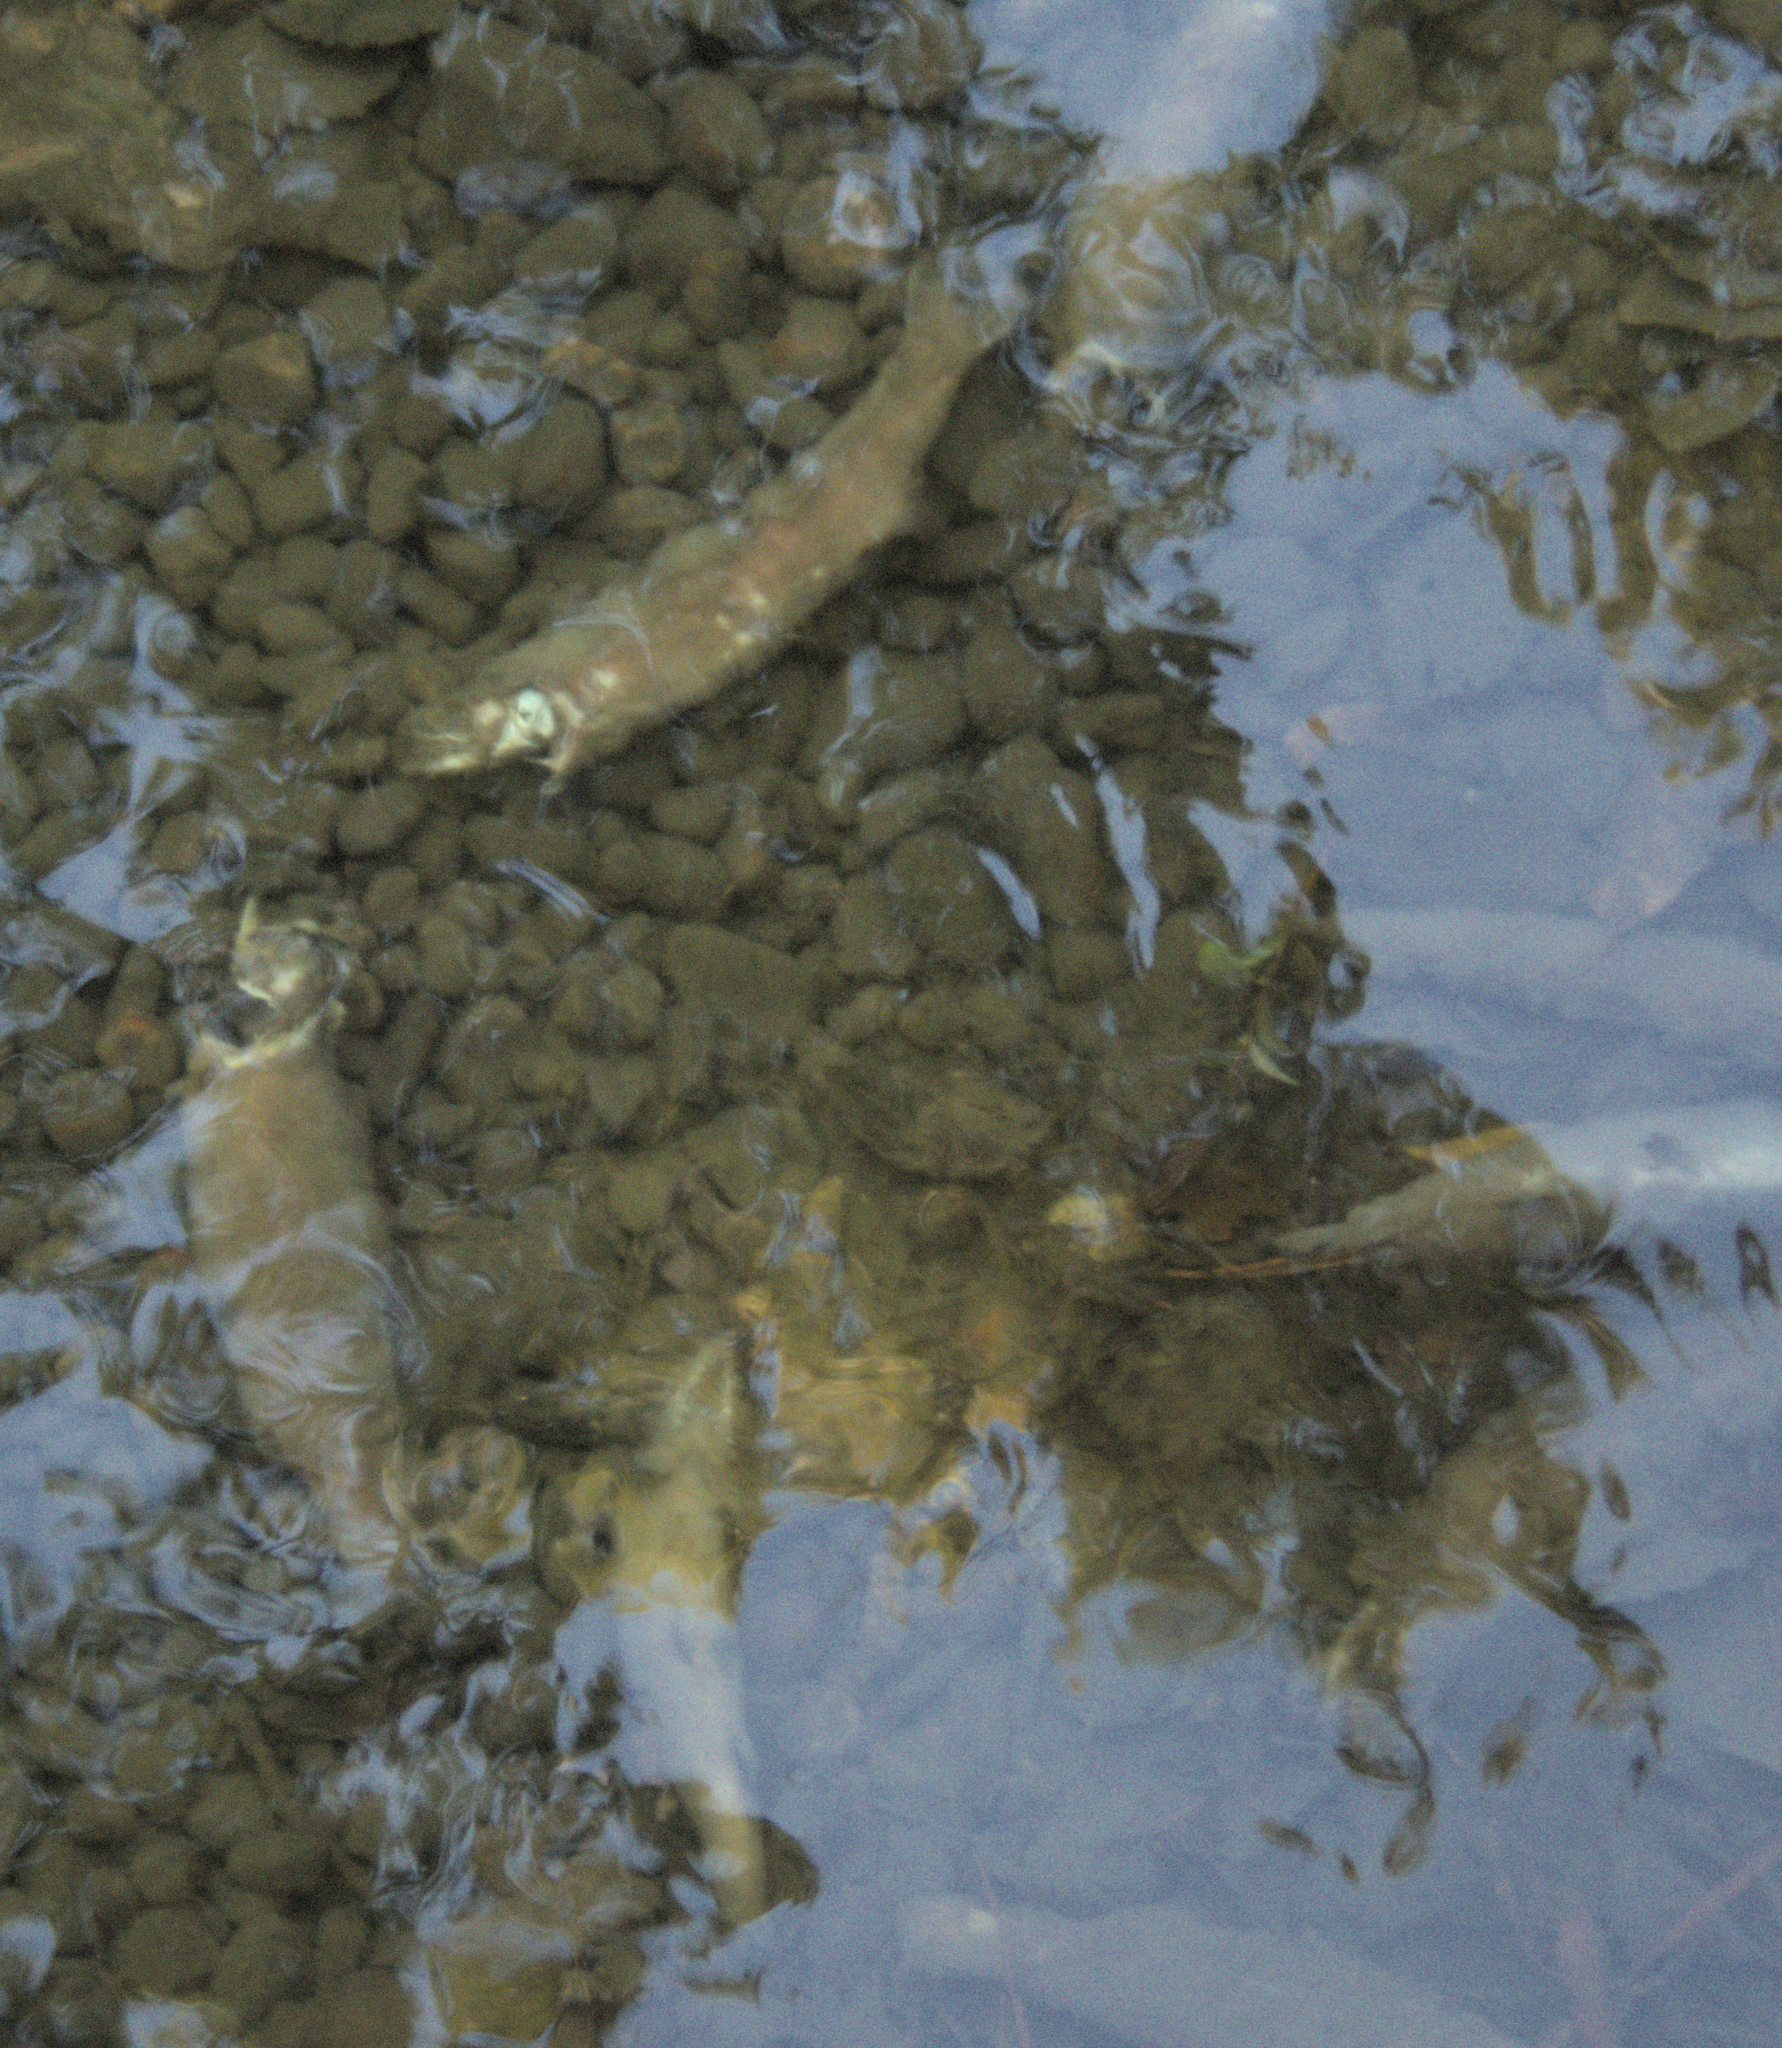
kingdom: Animalia
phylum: Chordata
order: Salmoniformes
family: Salmonidae
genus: Oncorhynchus
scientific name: Oncorhynchus mykiss
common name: Rainbow trout
